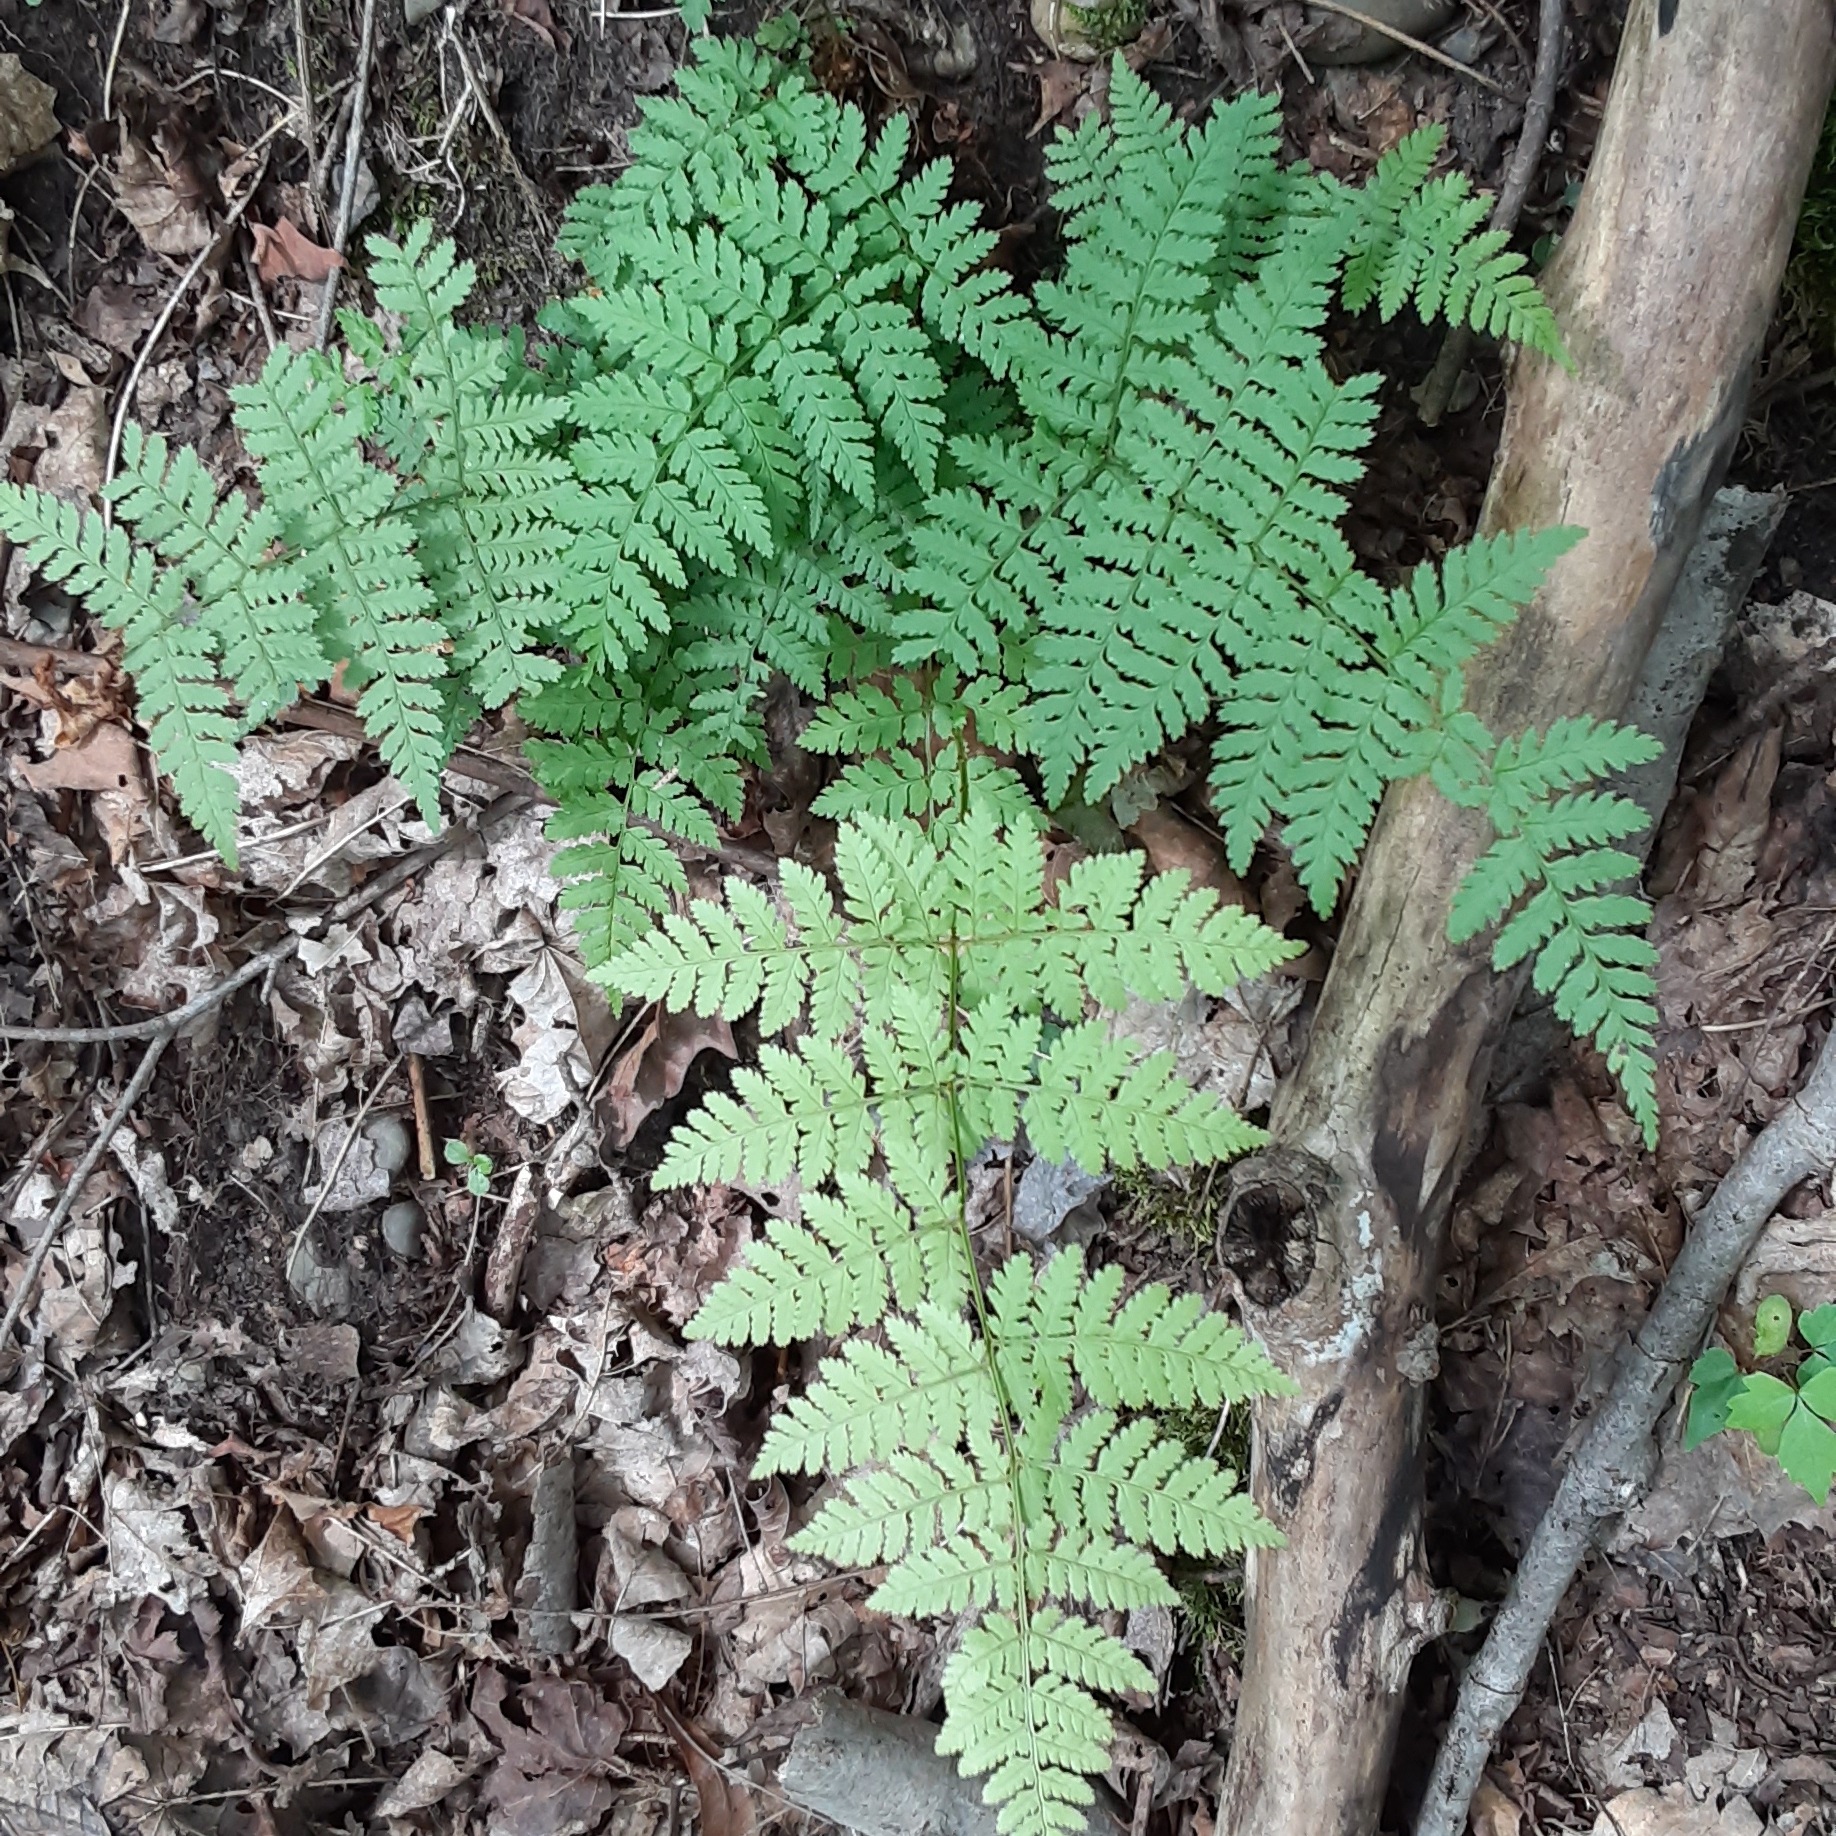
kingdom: Plantae
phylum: Tracheophyta
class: Polypodiopsida
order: Polypodiales
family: Dryopteridaceae
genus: Dryopteris
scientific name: Dryopteris intermedia
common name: Evergreen wood fern
